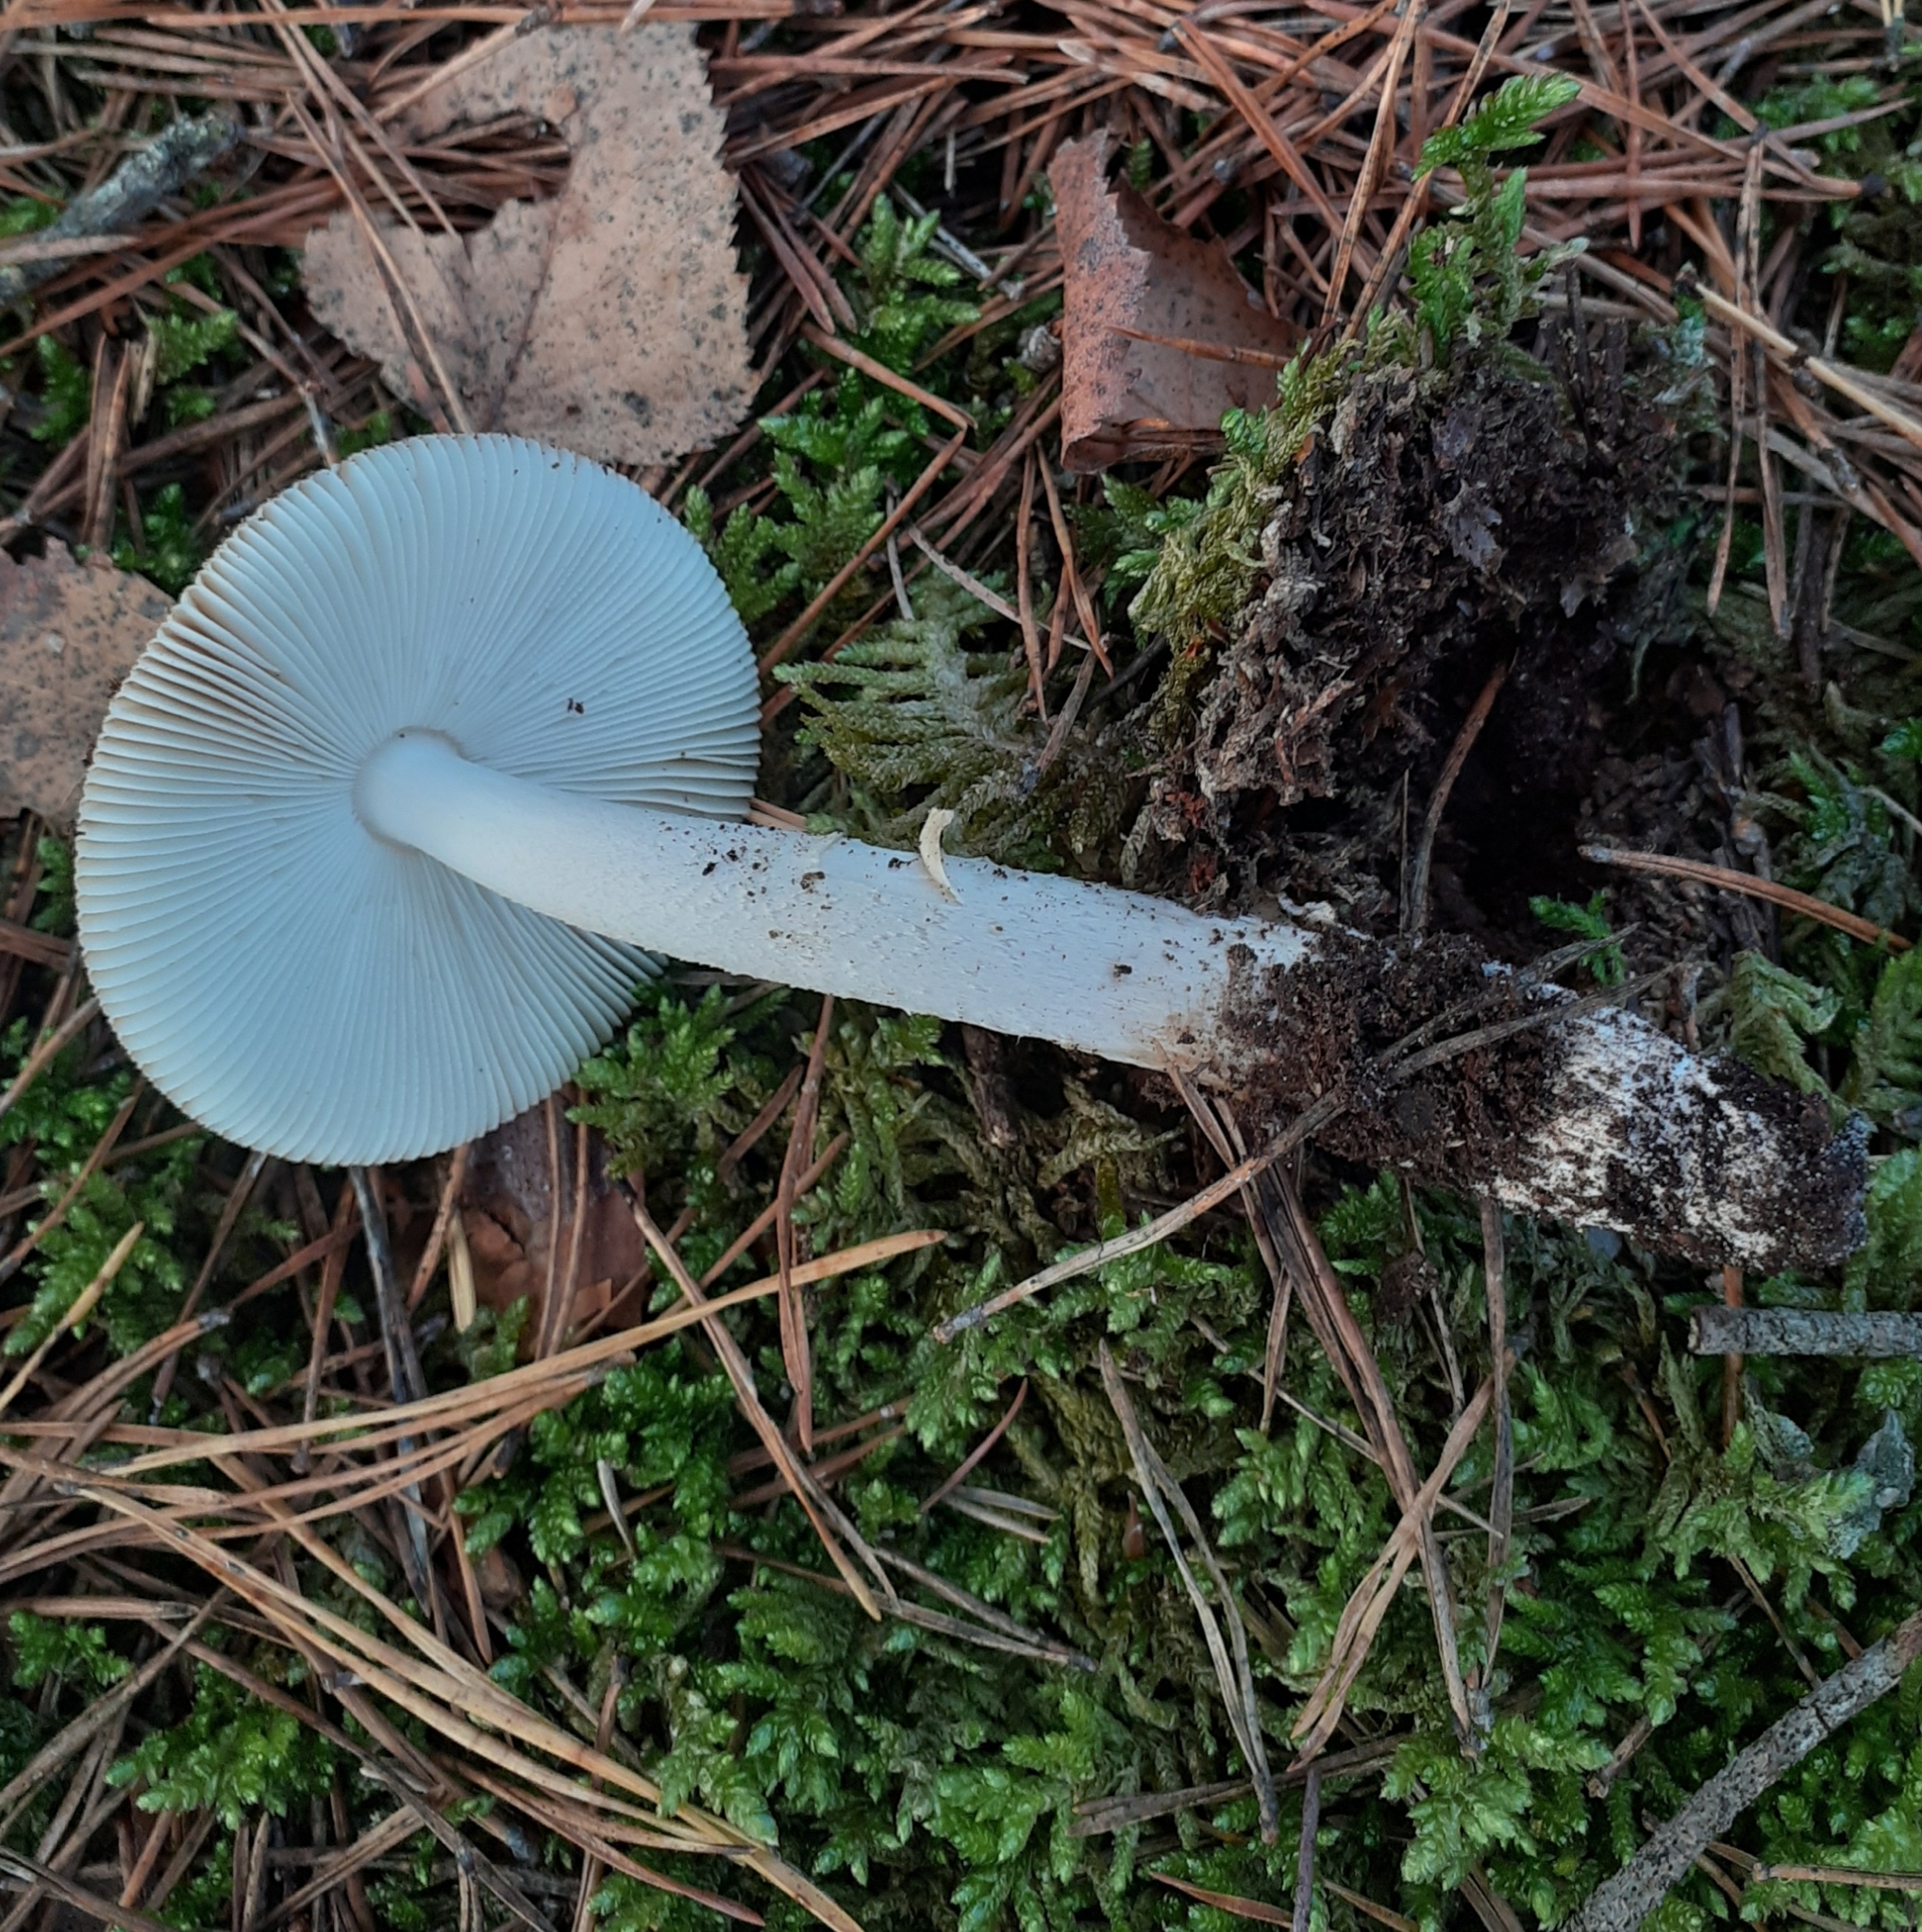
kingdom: Fungi
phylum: Basidiomycota
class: Agaricomycetes
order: Agaricales
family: Amanitaceae
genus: Amanita
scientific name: Amanita fulva
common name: Tawny grisette
